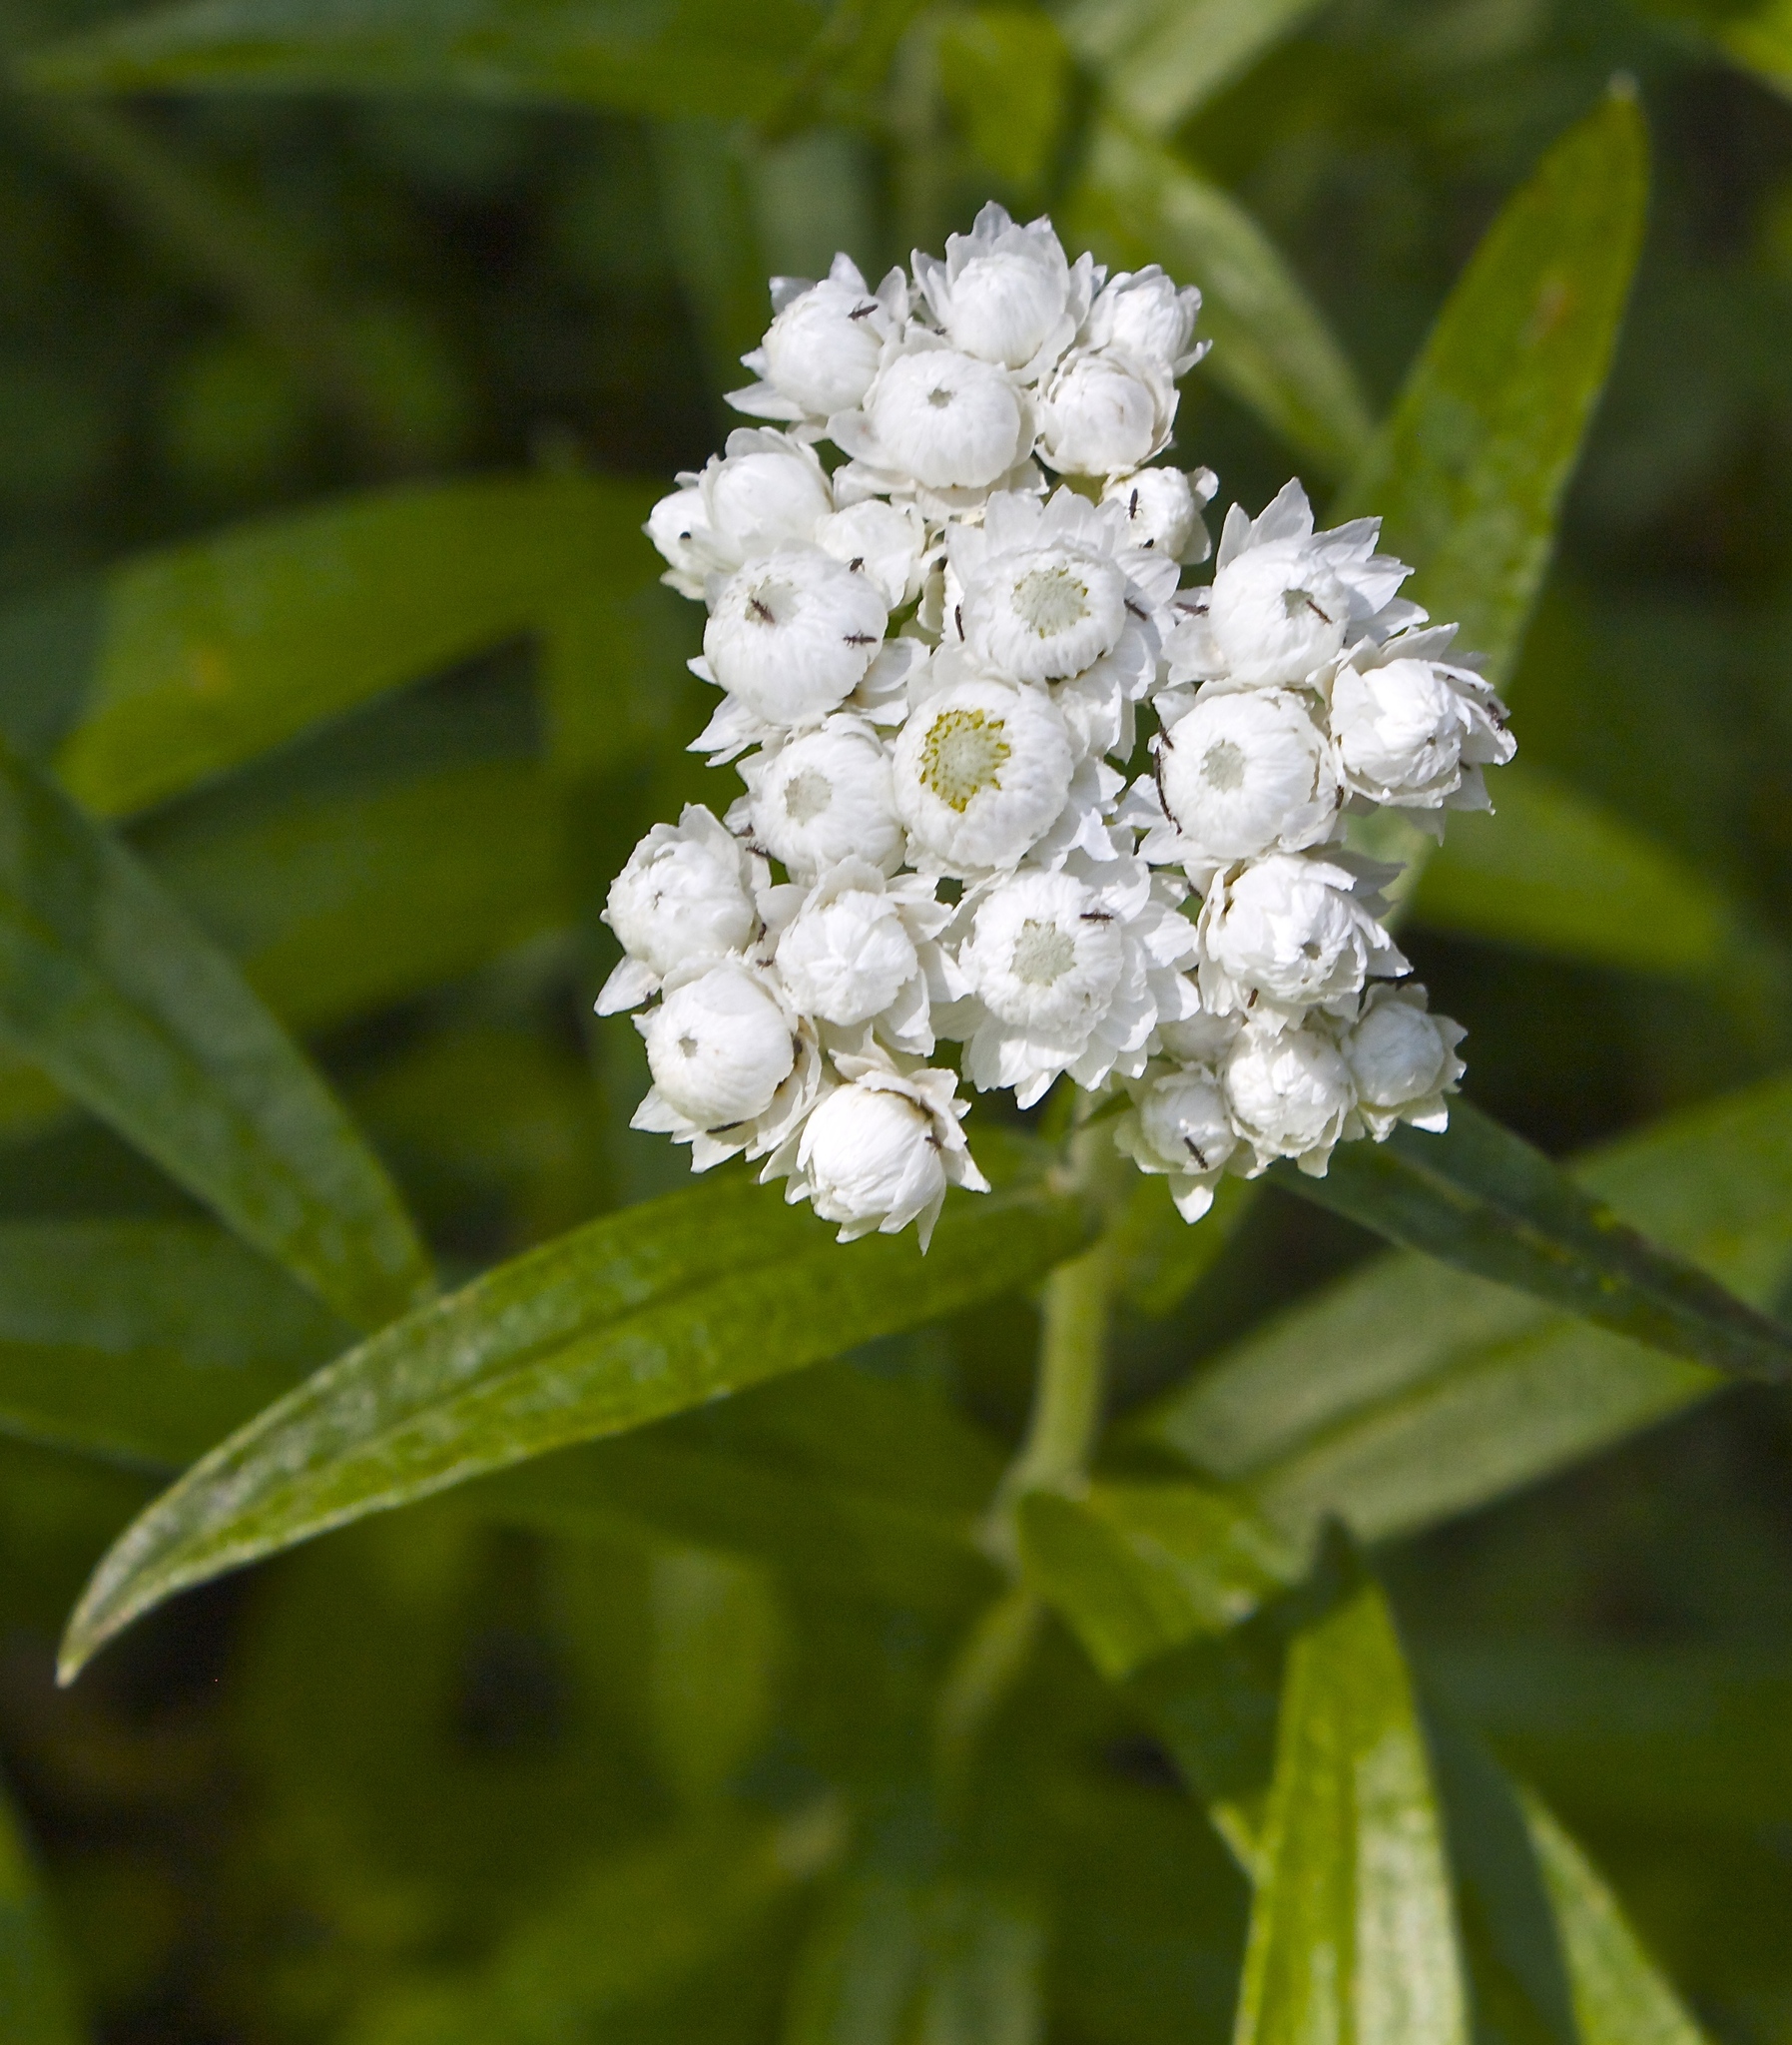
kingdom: Plantae
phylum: Tracheophyta
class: Magnoliopsida
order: Asterales
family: Asteraceae
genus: Anaphalis
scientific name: Anaphalis margaritacea
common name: Pearly everlasting
